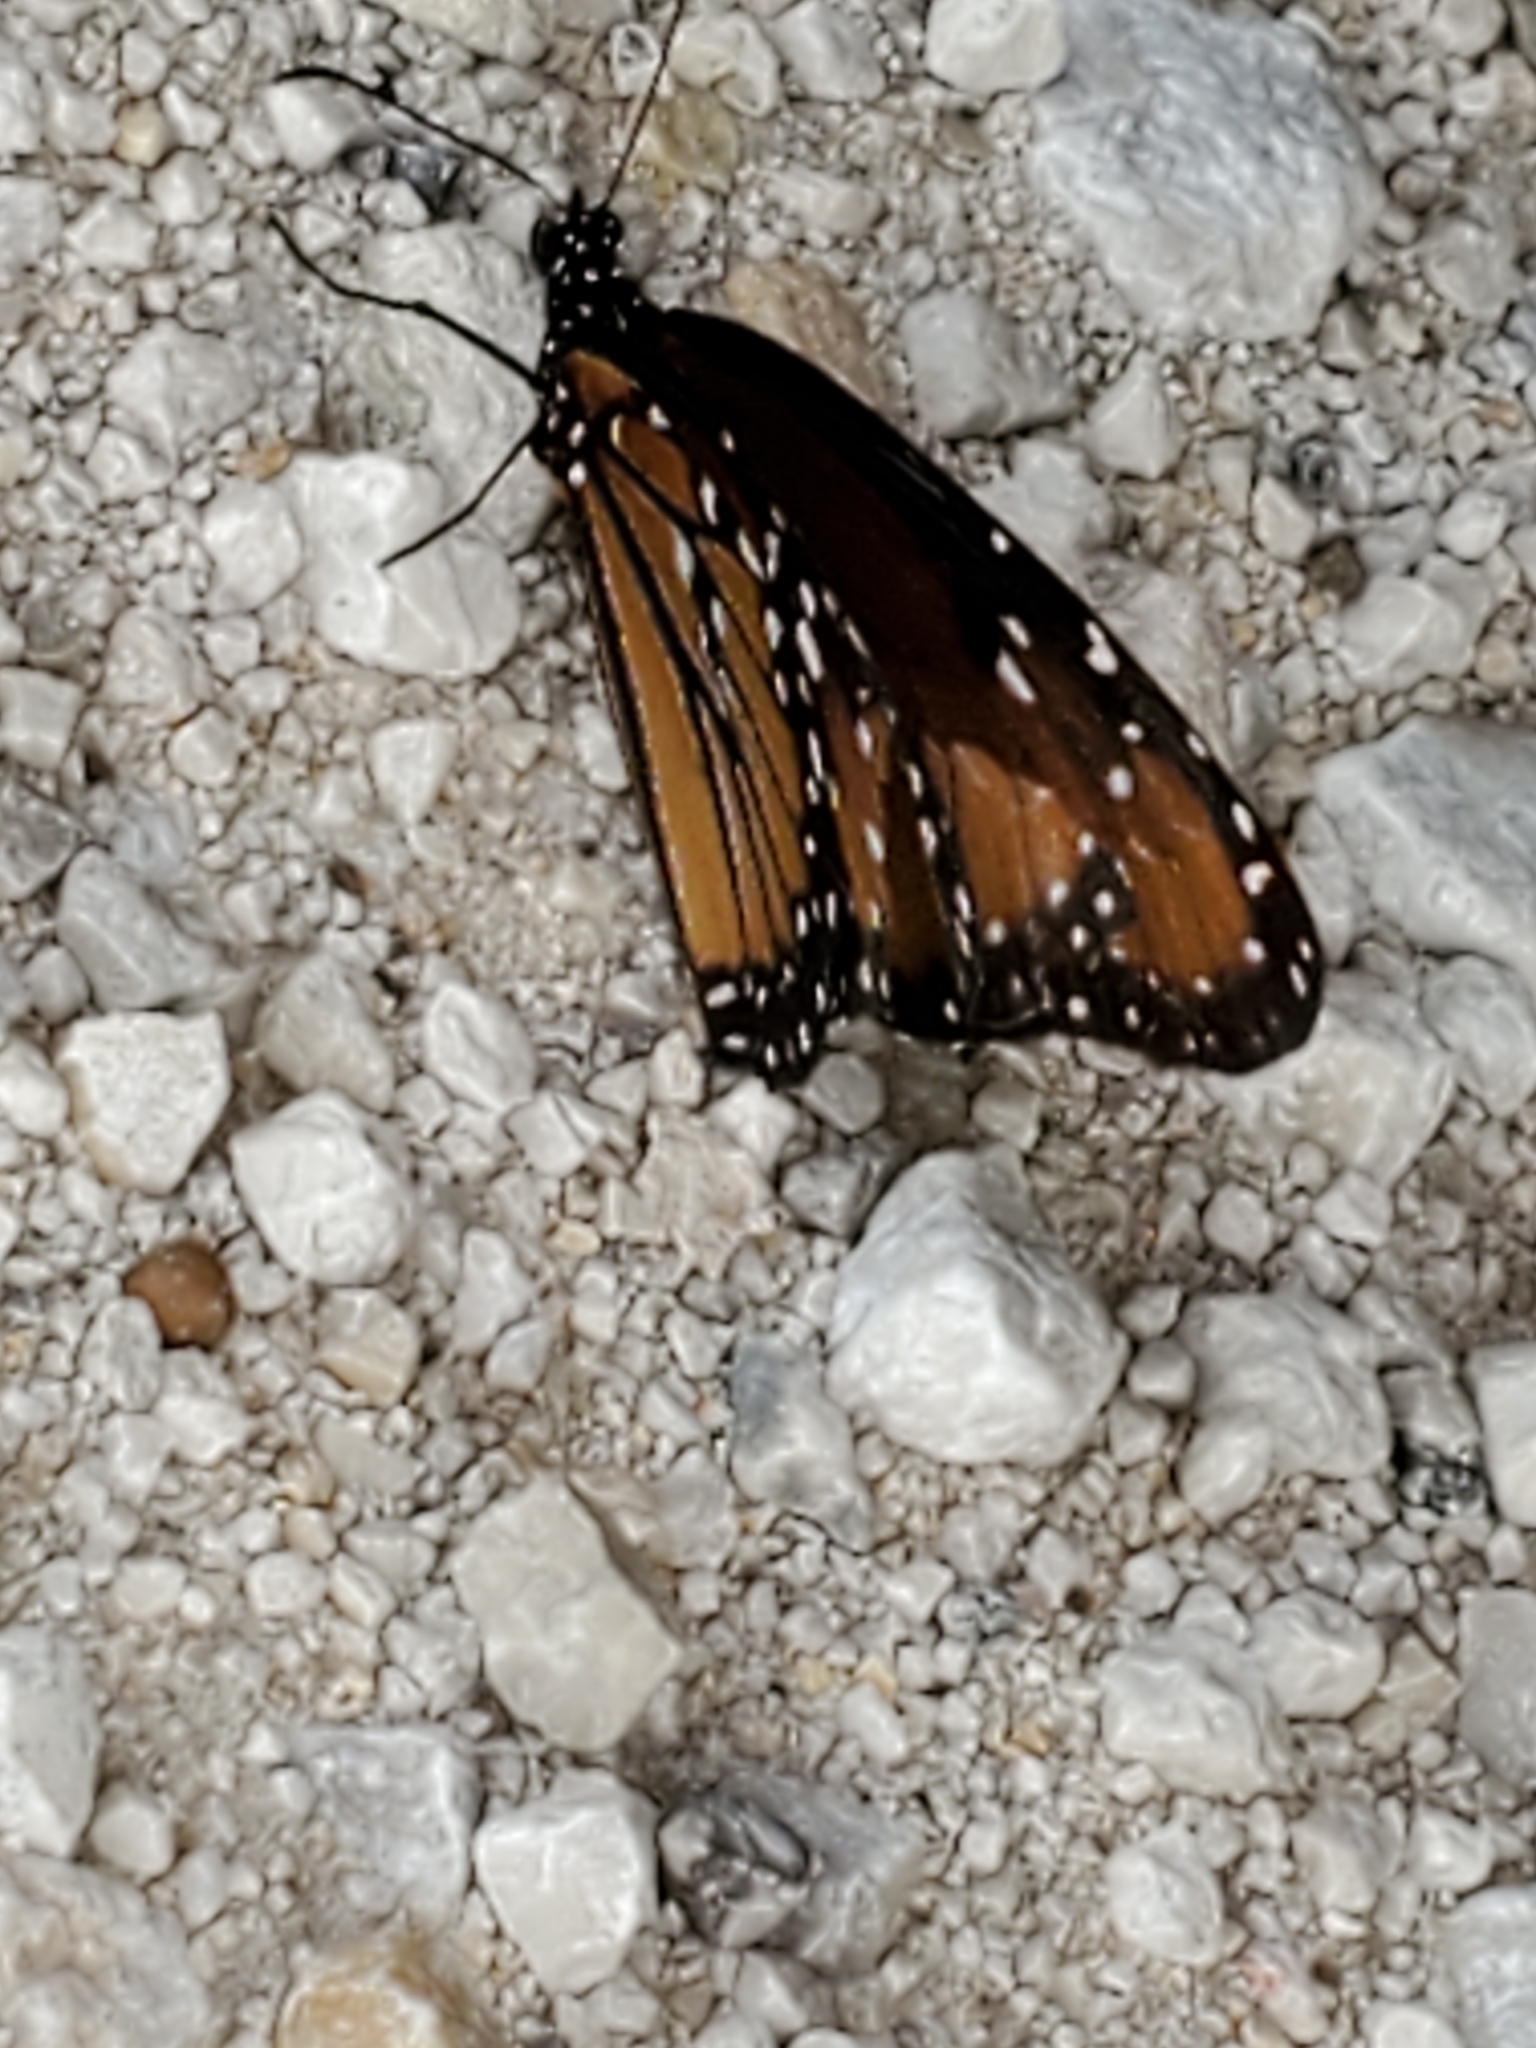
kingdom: Animalia
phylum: Arthropoda
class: Insecta
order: Lepidoptera
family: Nymphalidae
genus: Danaus
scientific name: Danaus gilippus
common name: Queen
